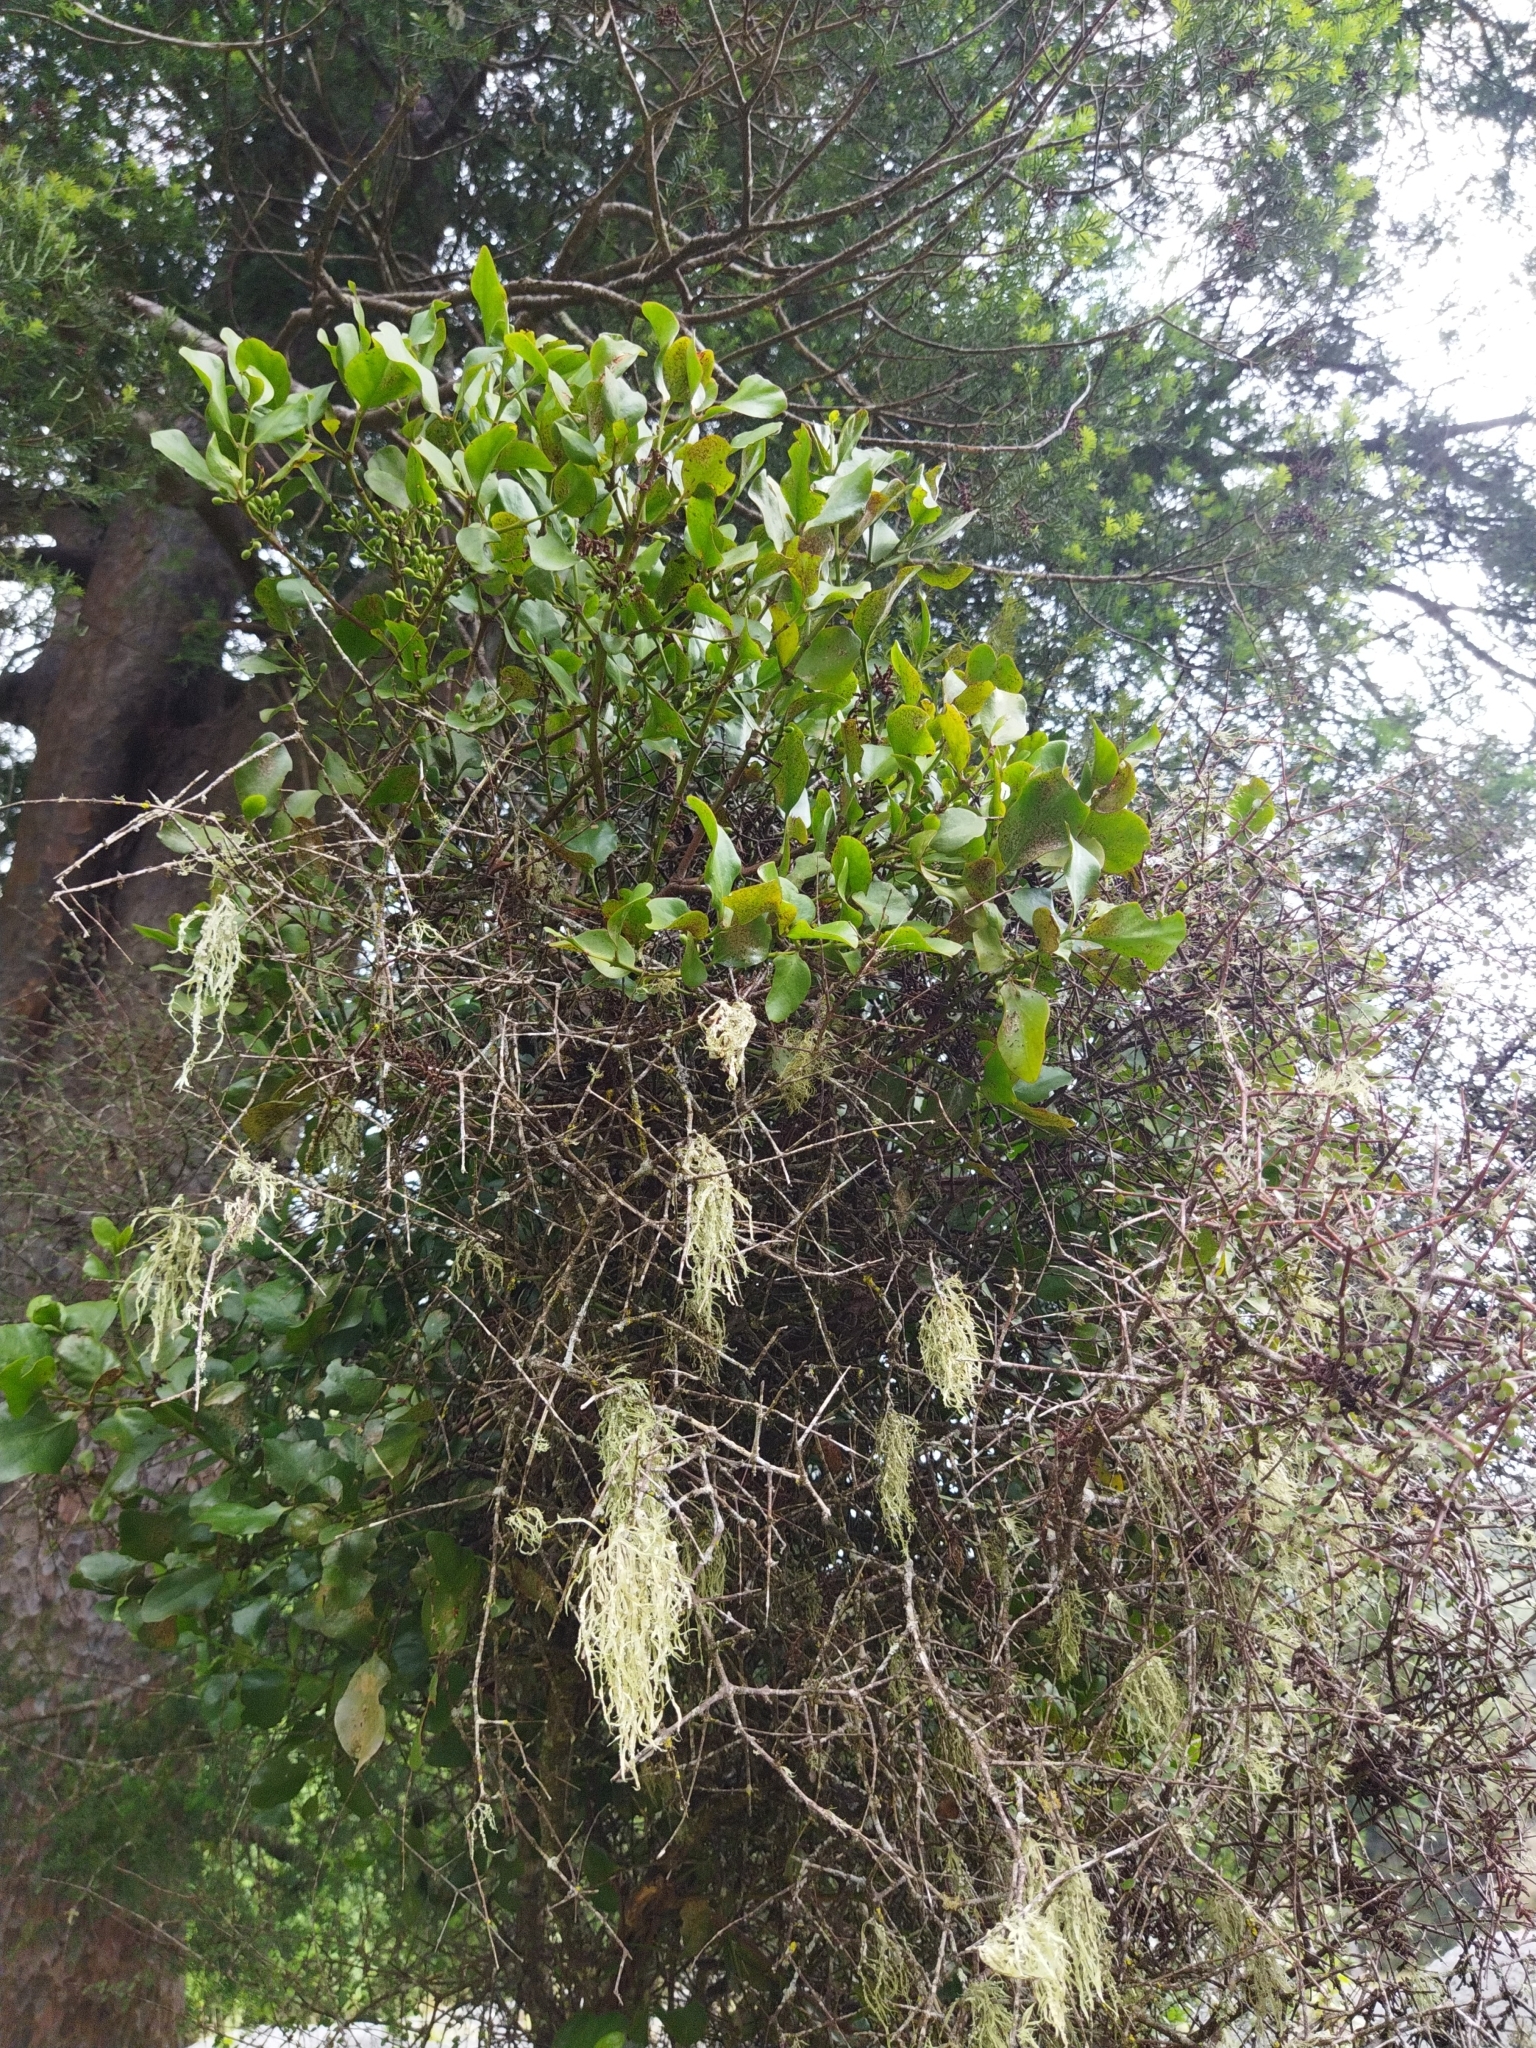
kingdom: Plantae
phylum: Tracheophyta
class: Magnoliopsida
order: Santalales
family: Loranthaceae
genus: Ileostylus
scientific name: Ileostylus micranthus
